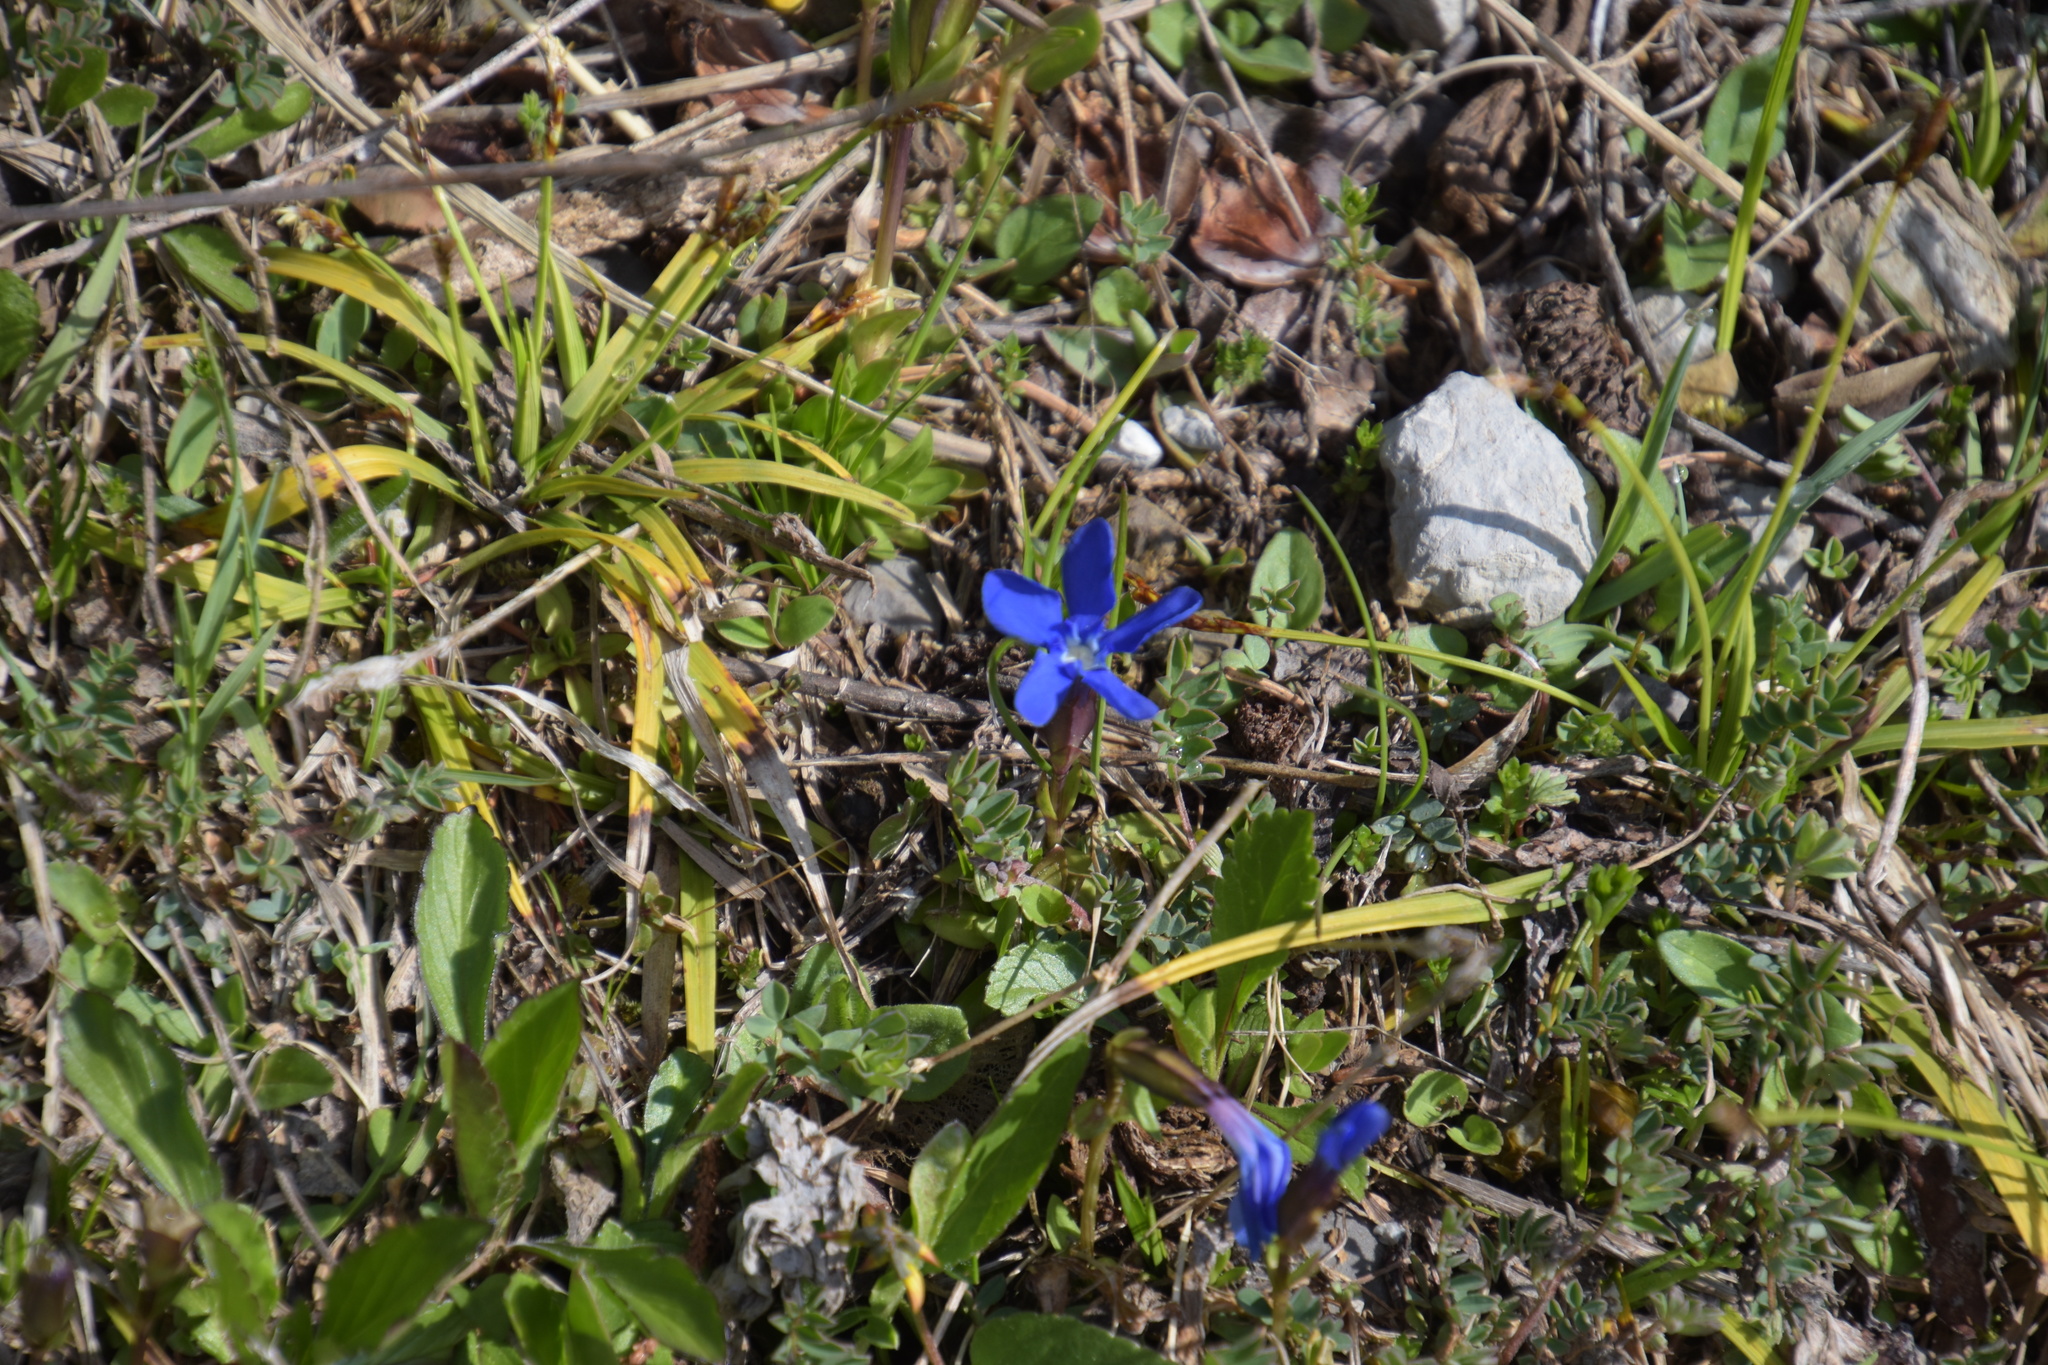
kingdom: Plantae
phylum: Tracheophyta
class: Magnoliopsida
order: Gentianales
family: Gentianaceae
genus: Gentiana
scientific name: Gentiana verna
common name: Spring gentian
